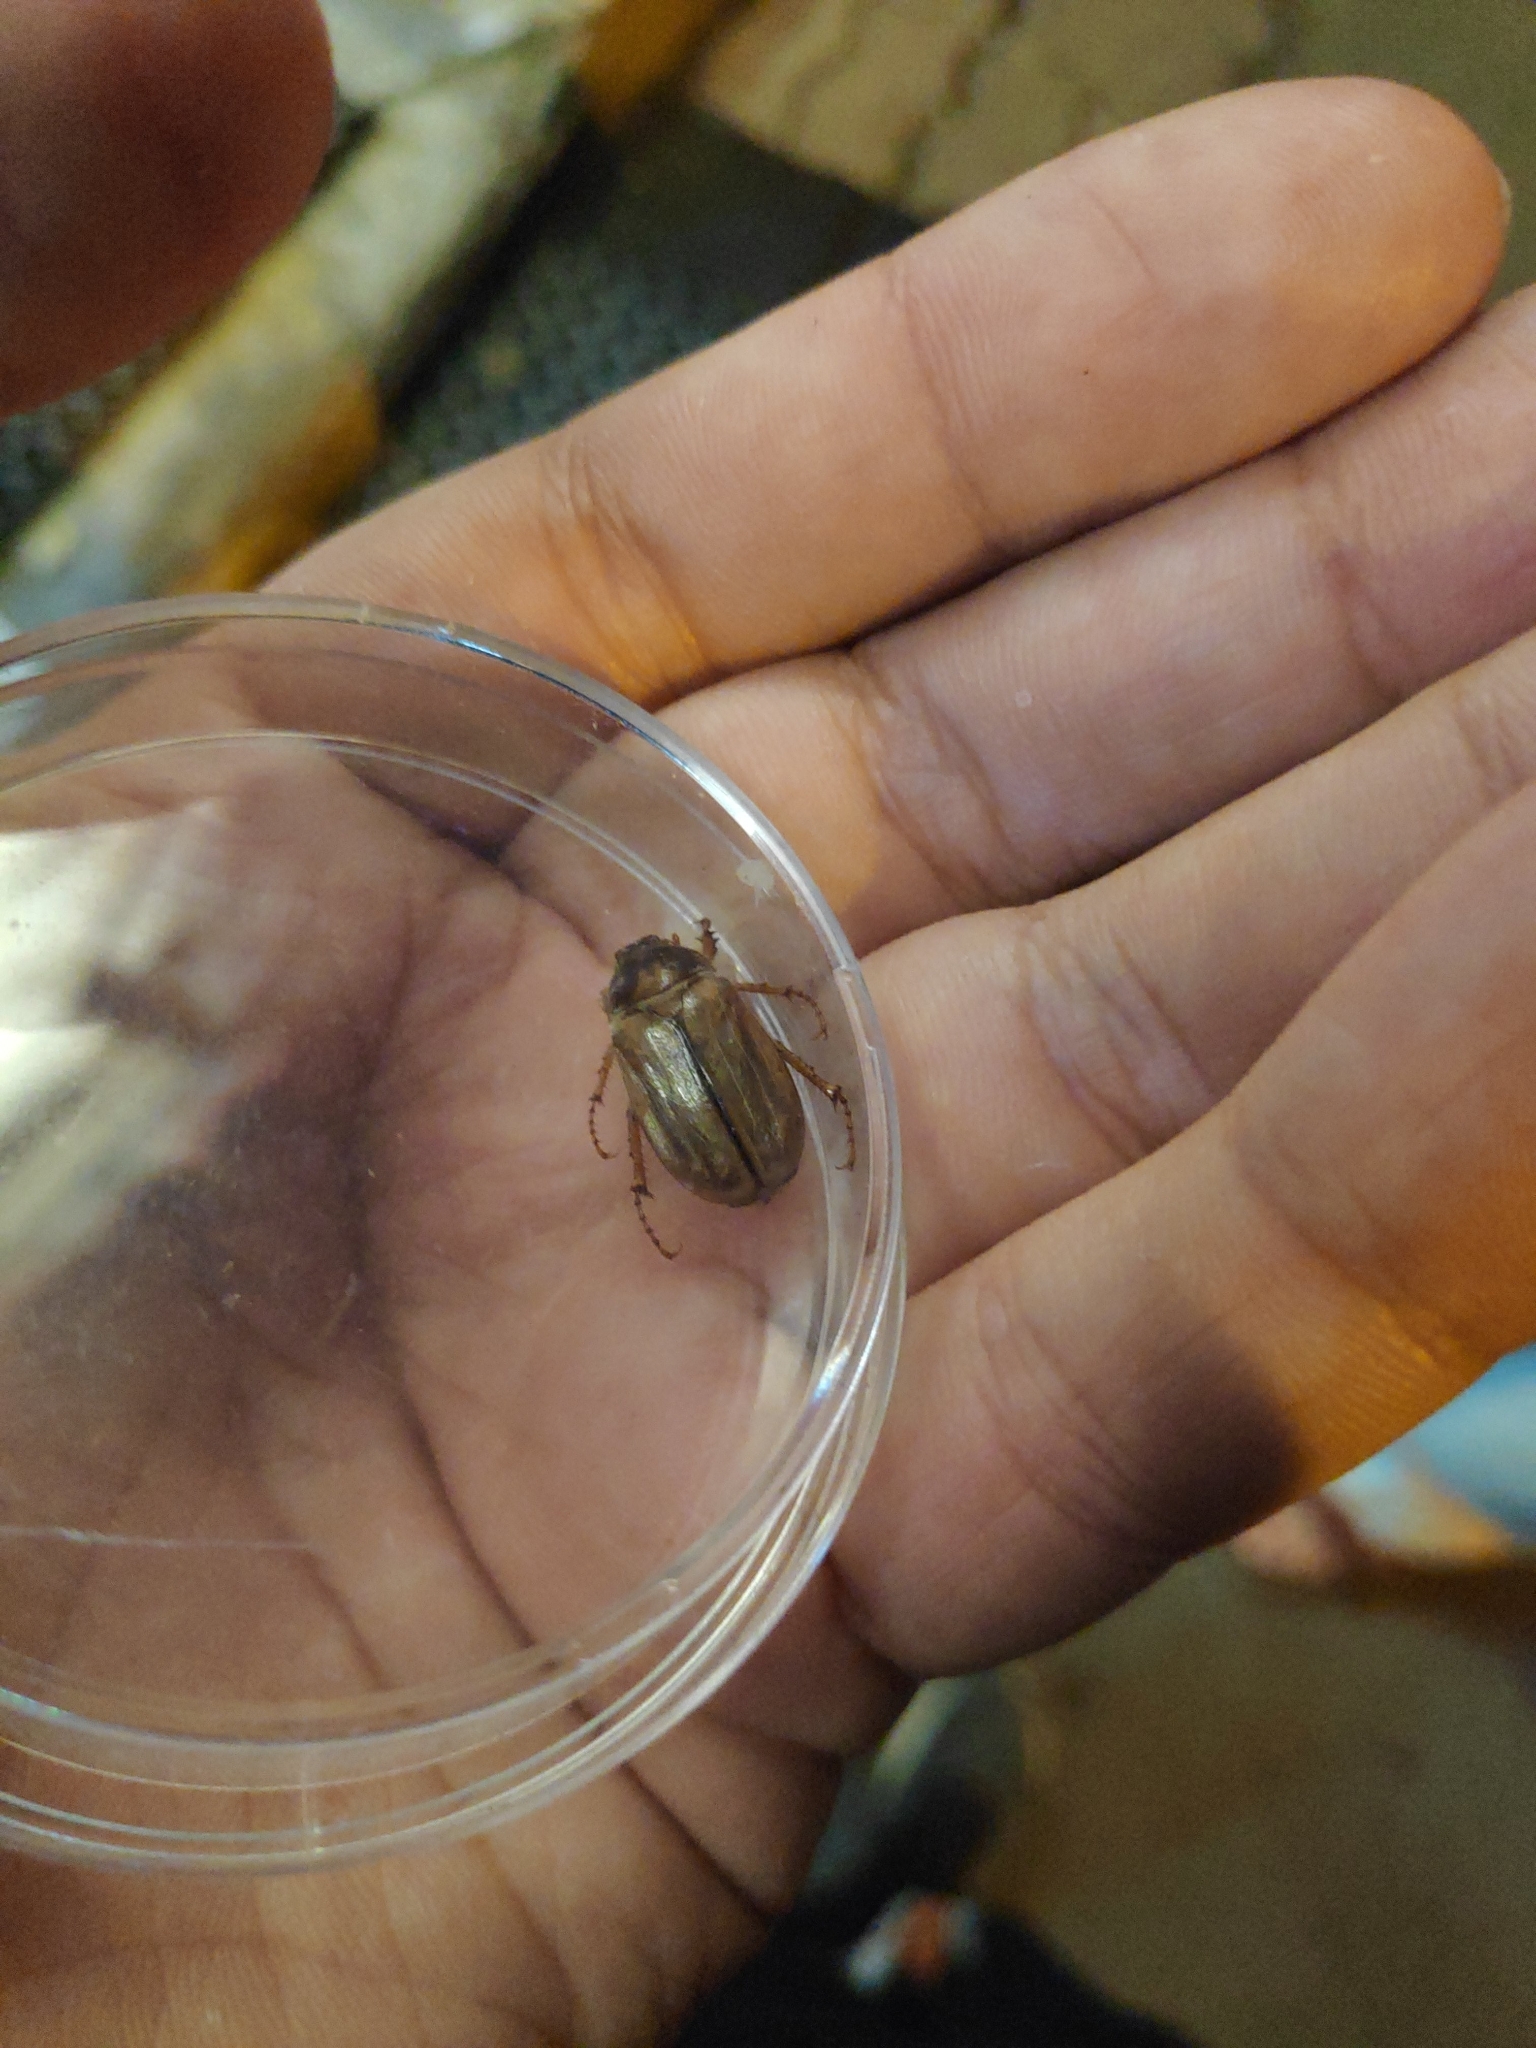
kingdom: Animalia
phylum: Arthropoda
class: Insecta
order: Coleoptera
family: Scarabaeidae
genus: Amphimallon
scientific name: Amphimallon solstitiale
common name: Summer chafer
